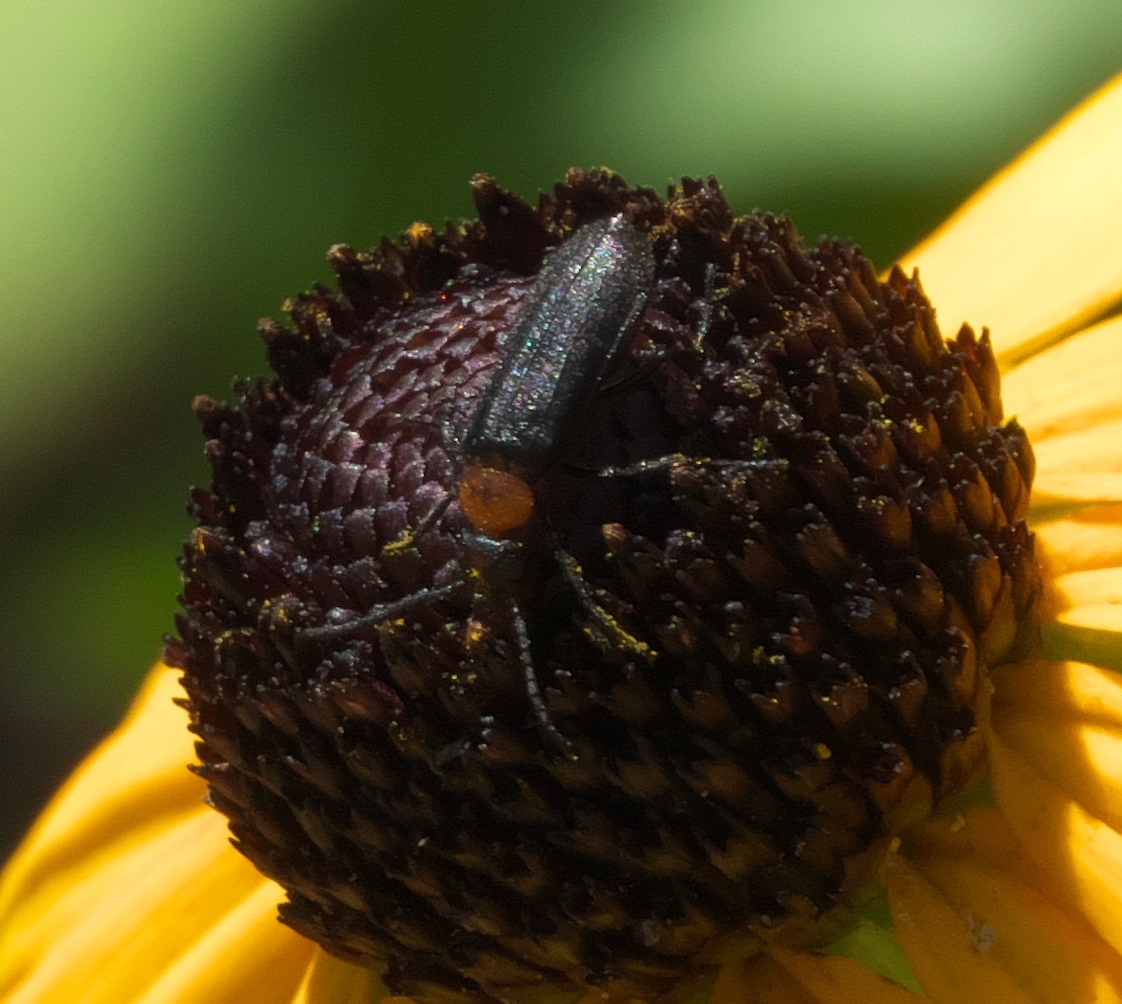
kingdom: Animalia
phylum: Arthropoda
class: Insecta
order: Coleoptera
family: Meloidae
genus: Nemognatha
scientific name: Nemognatha nemorensis
